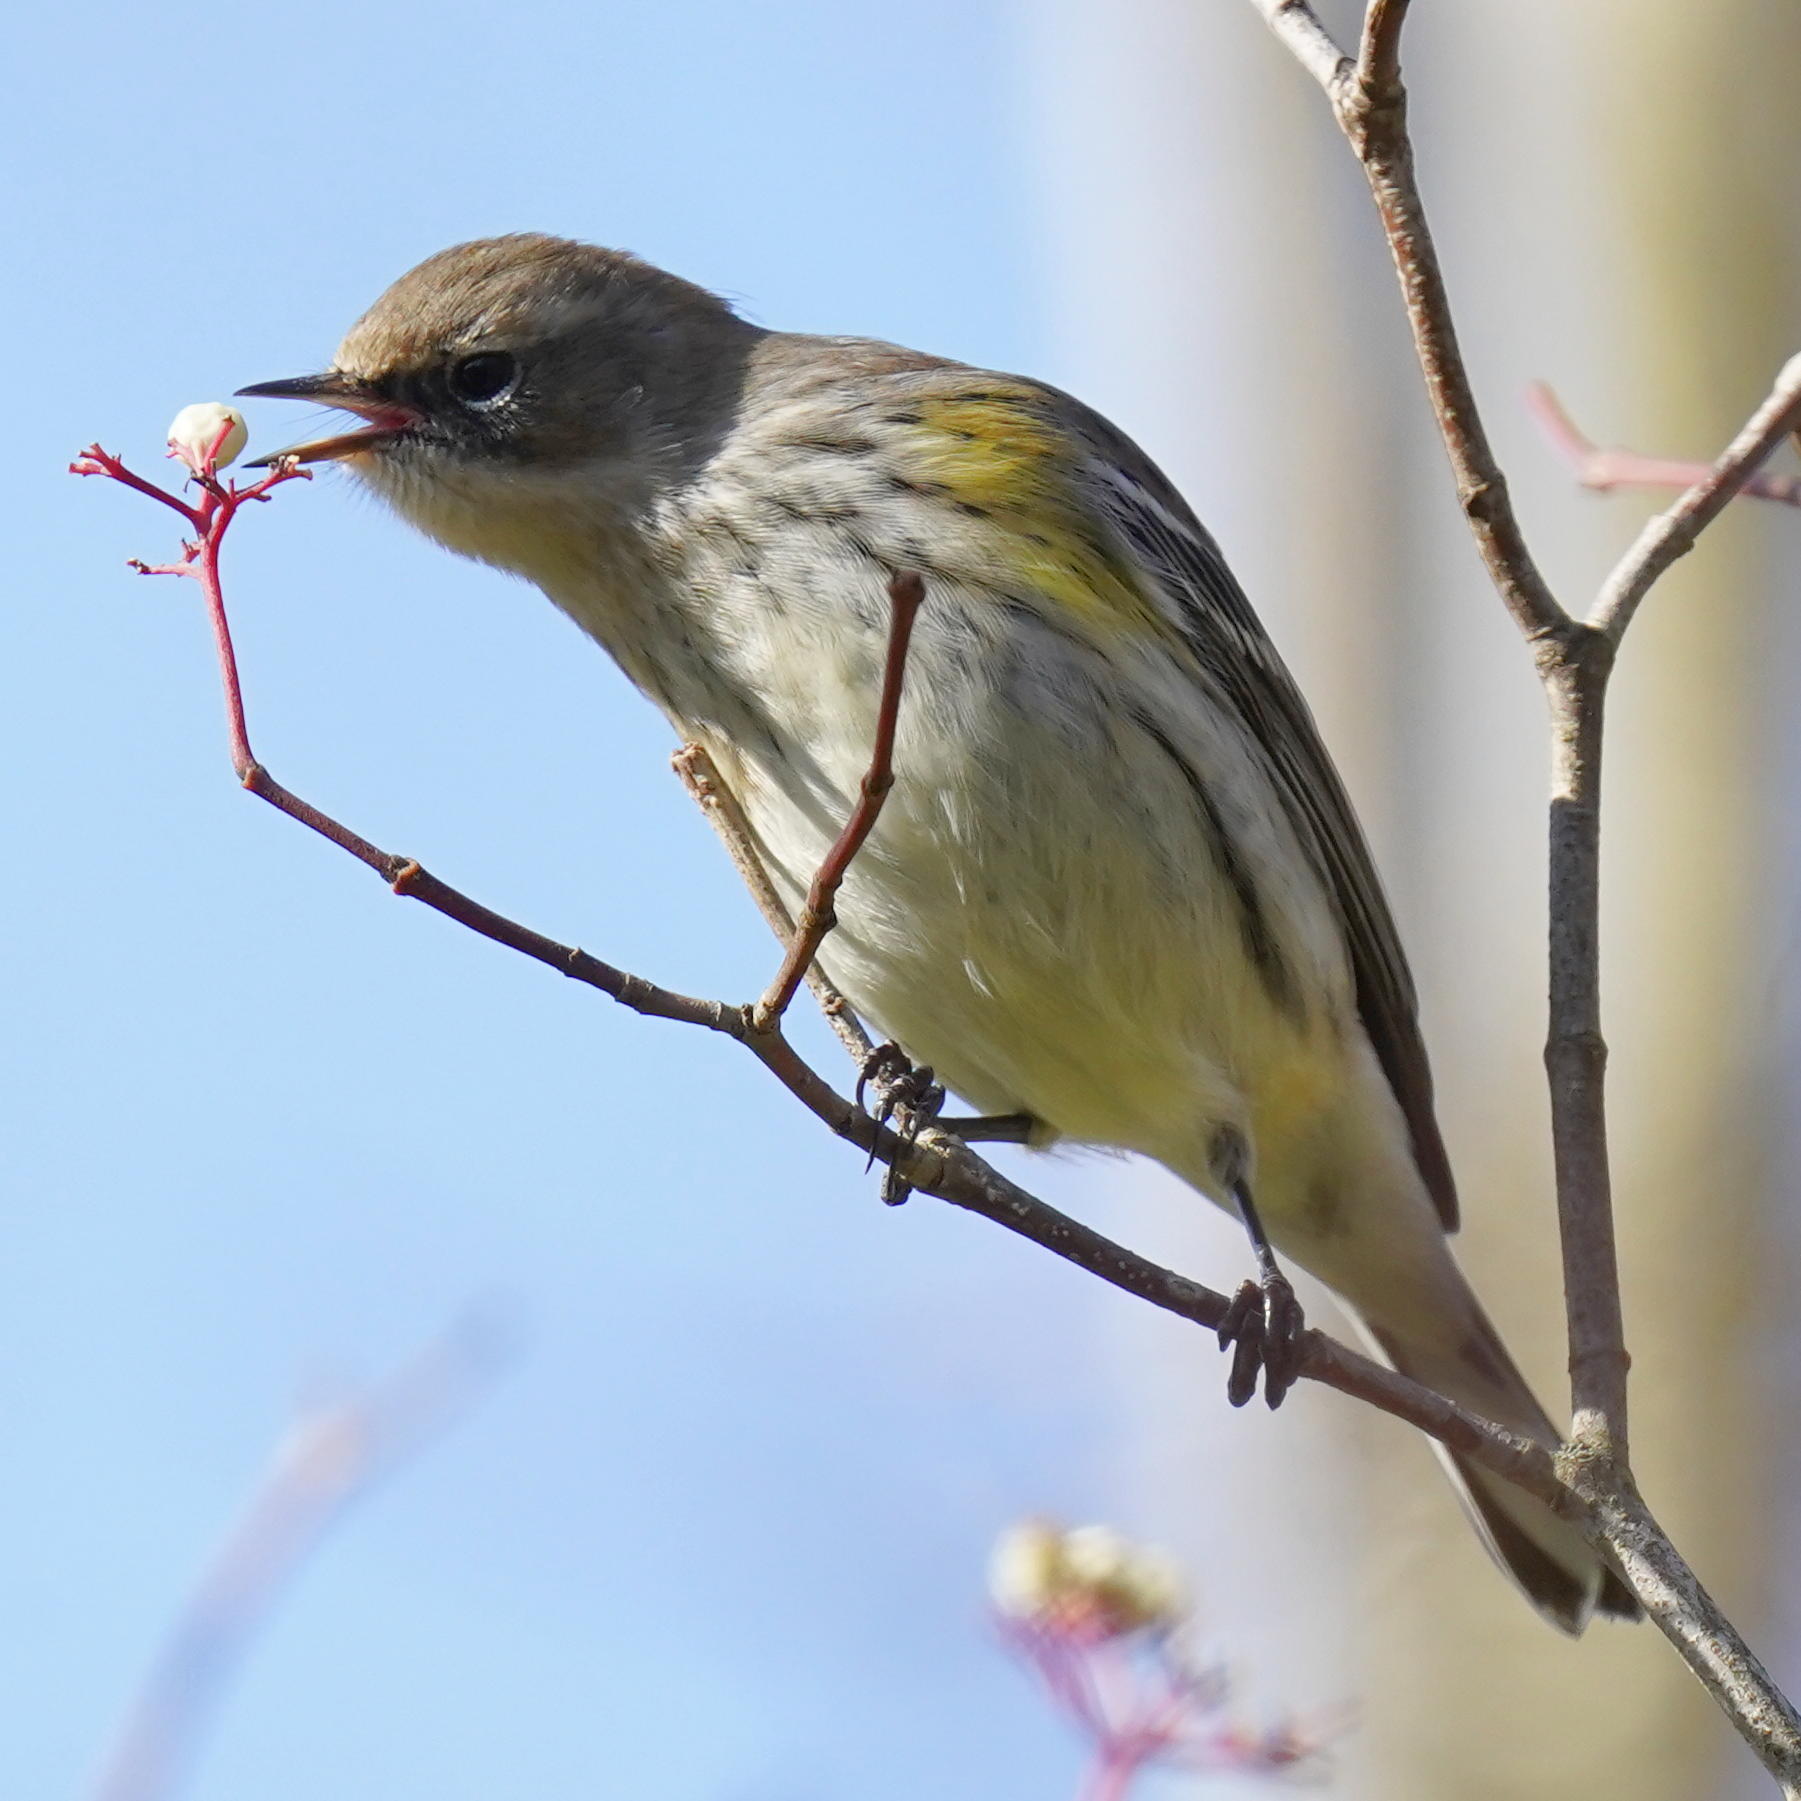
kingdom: Animalia
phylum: Chordata
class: Aves
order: Passeriformes
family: Parulidae
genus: Setophaga
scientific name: Setophaga coronata
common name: Myrtle warbler
